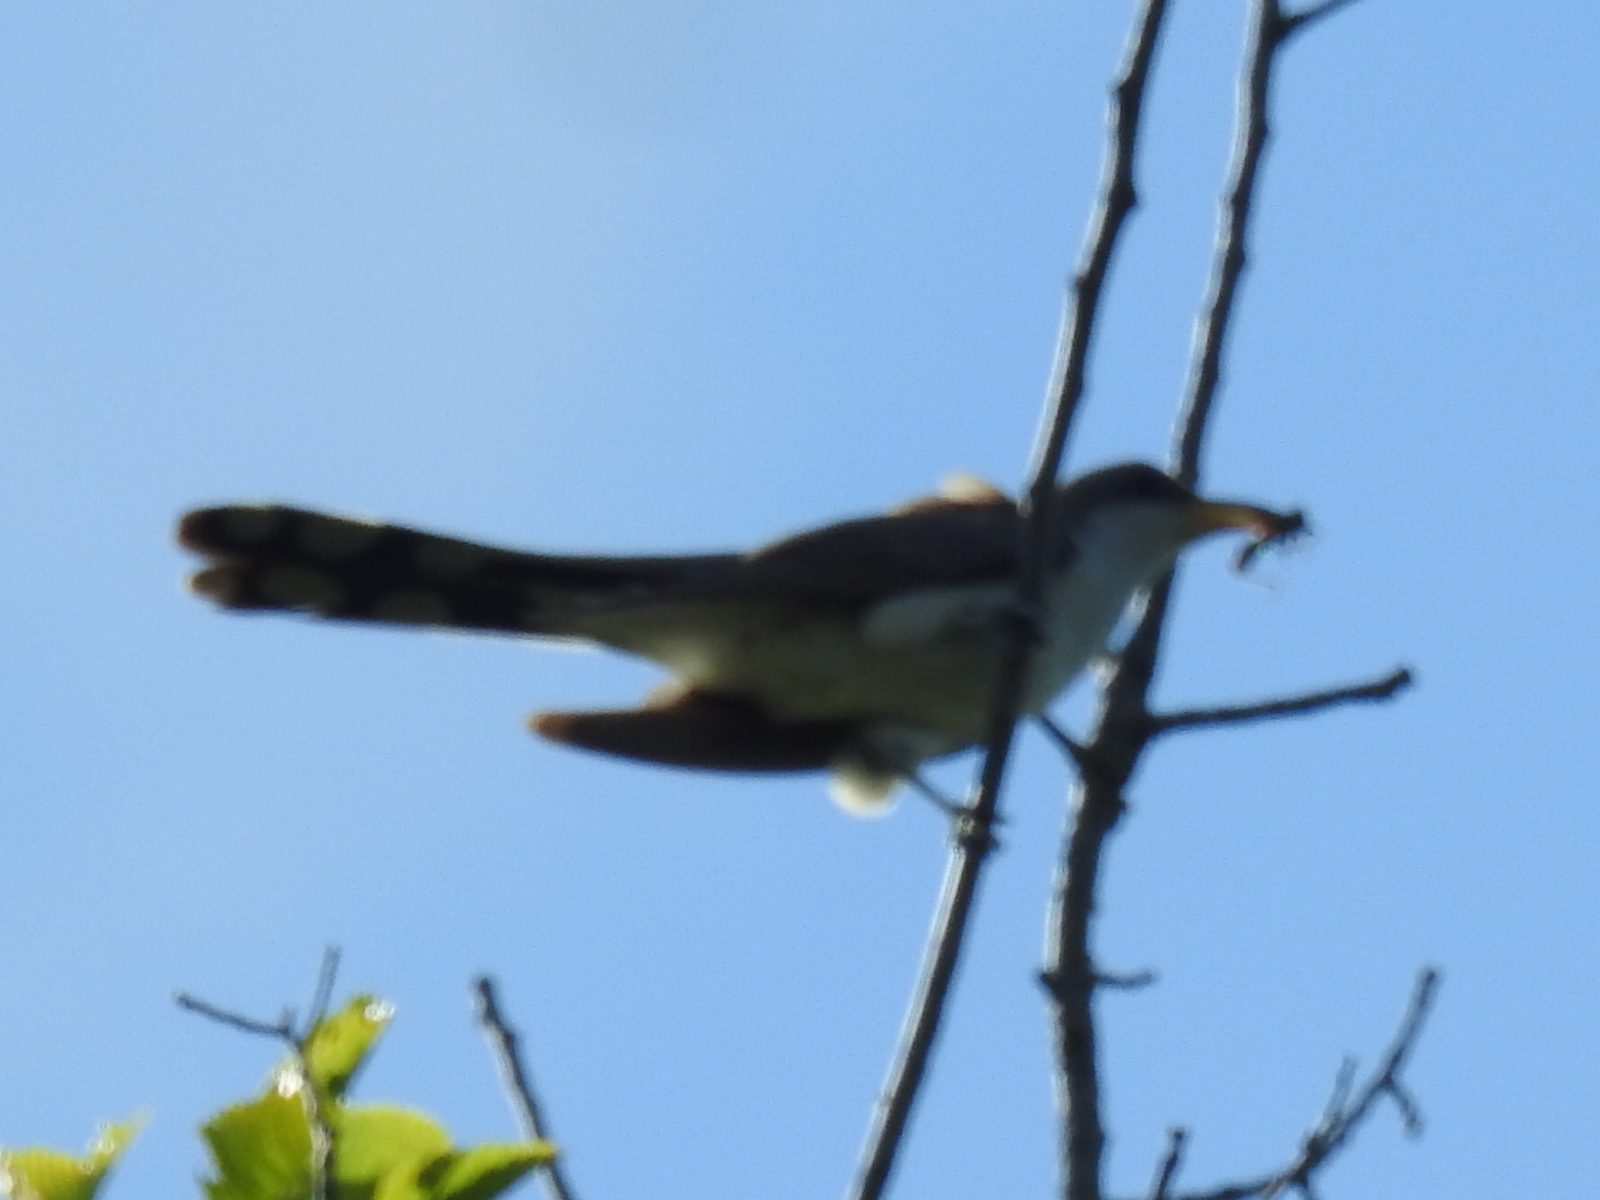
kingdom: Animalia
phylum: Chordata
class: Aves
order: Cuculiformes
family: Cuculidae
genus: Coccyzus
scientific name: Coccyzus americanus
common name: Yellow-billed cuckoo
